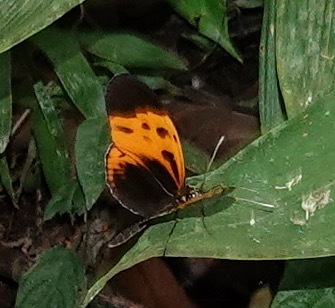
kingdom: Animalia
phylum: Arthropoda
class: Insecta
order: Lepidoptera
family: Nymphalidae
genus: Heliconius
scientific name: Heliconius numatus
